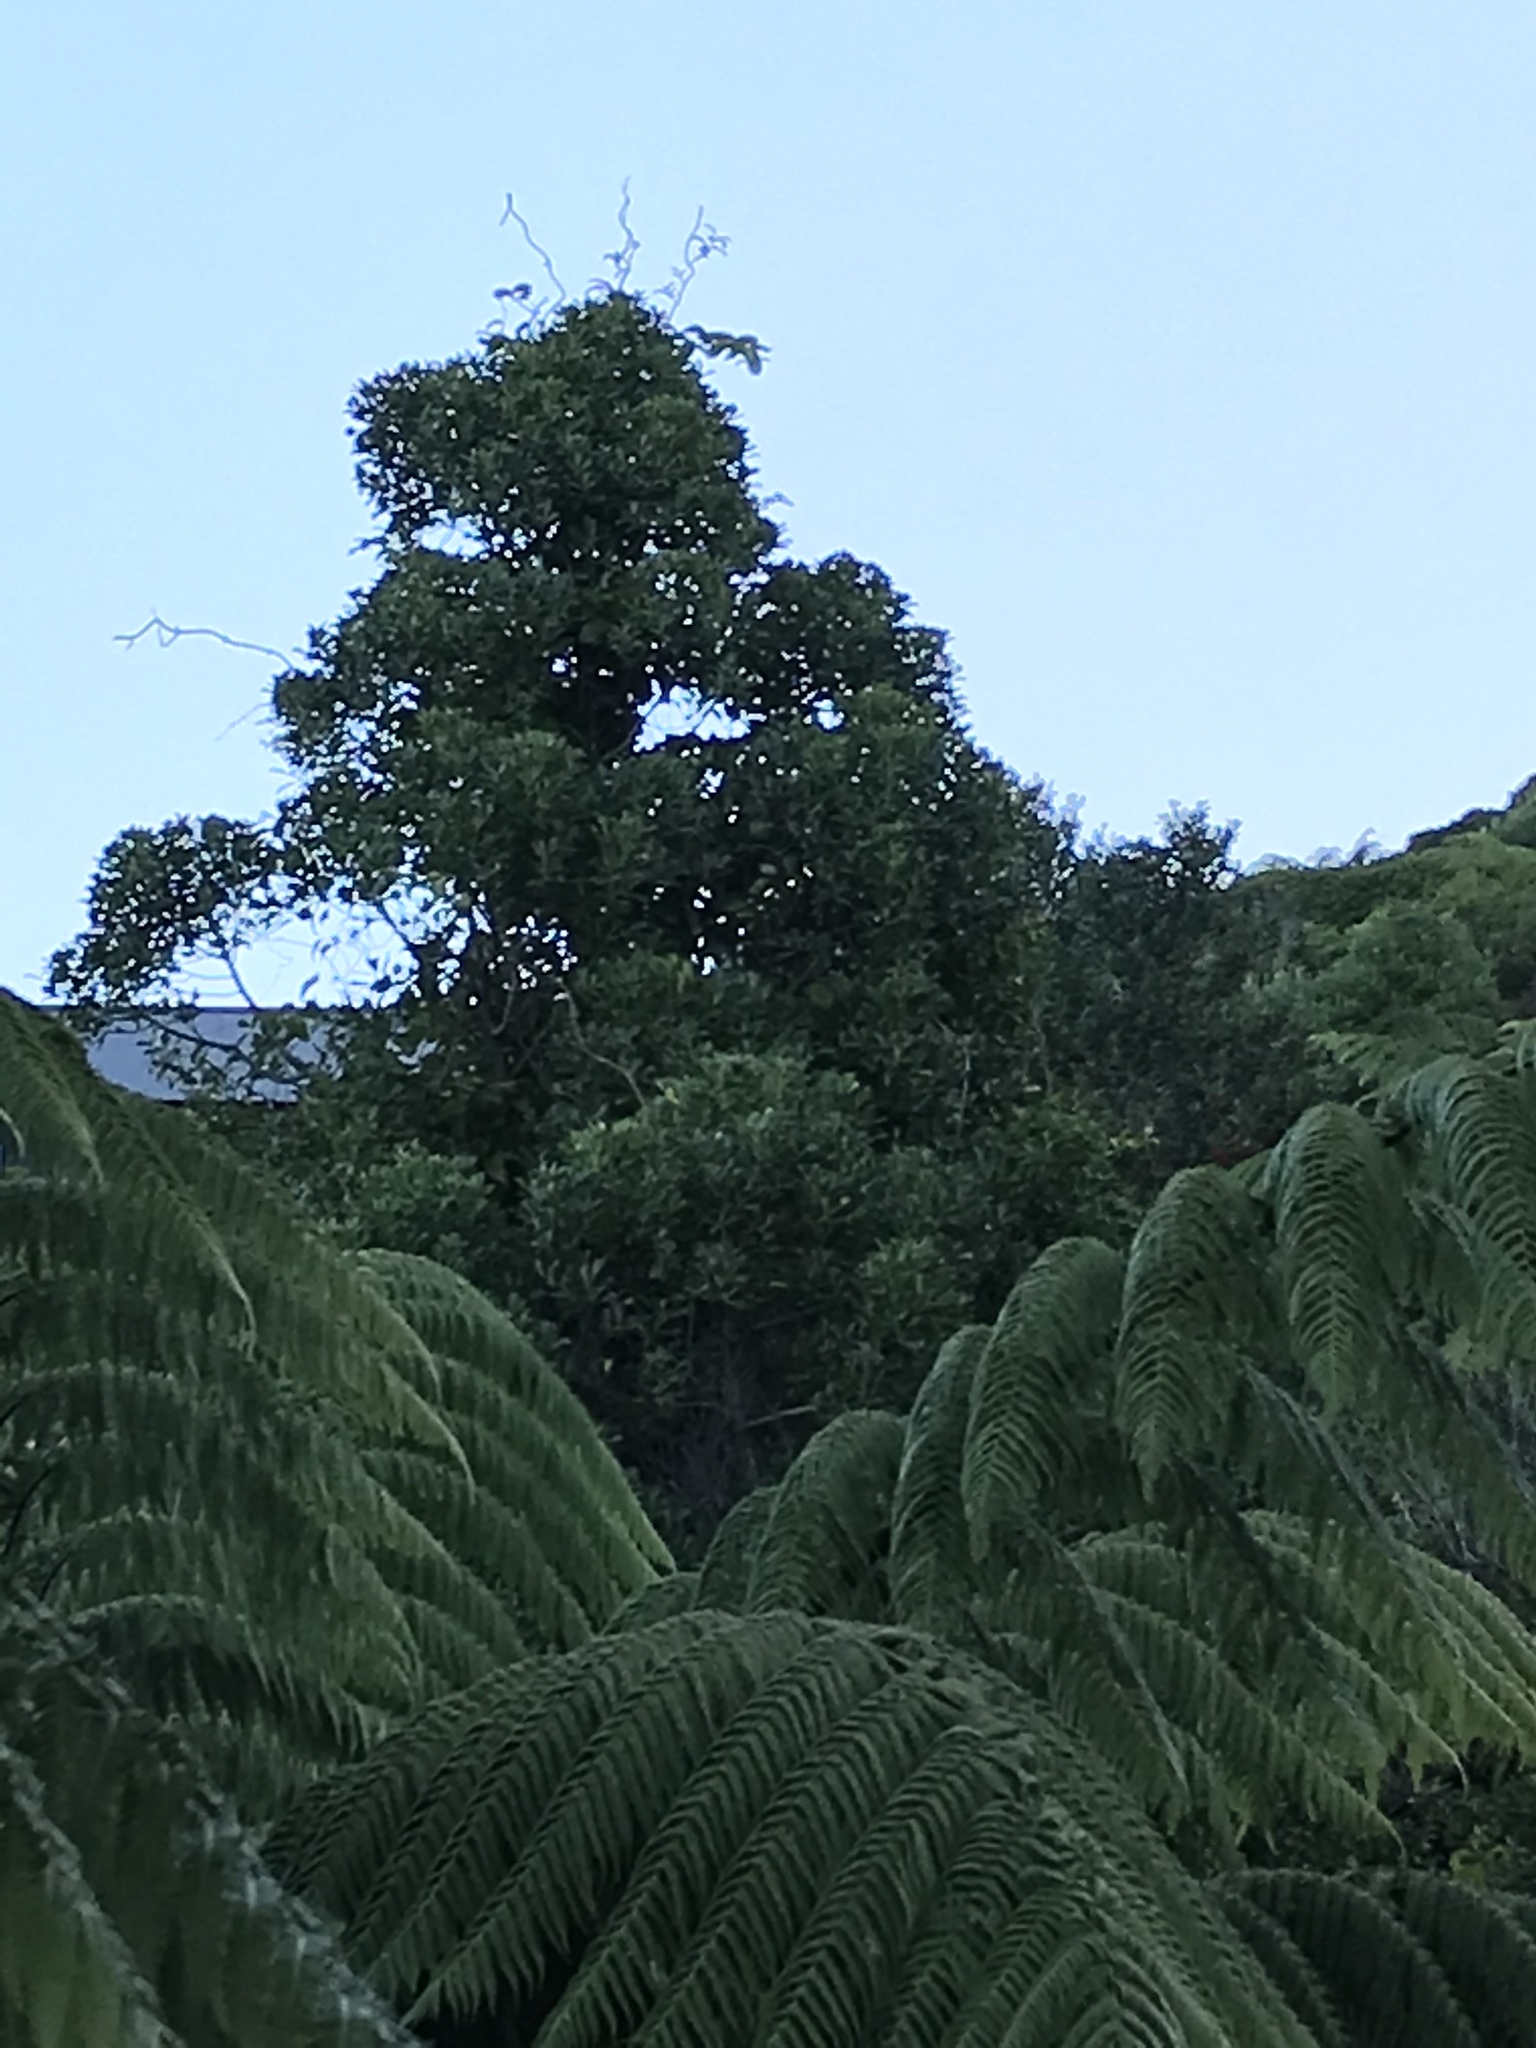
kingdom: Plantae
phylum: Tracheophyta
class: Magnoliopsida
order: Laurales
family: Atherospermataceae
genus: Laurelia
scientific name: Laurelia novae-zelandiae
